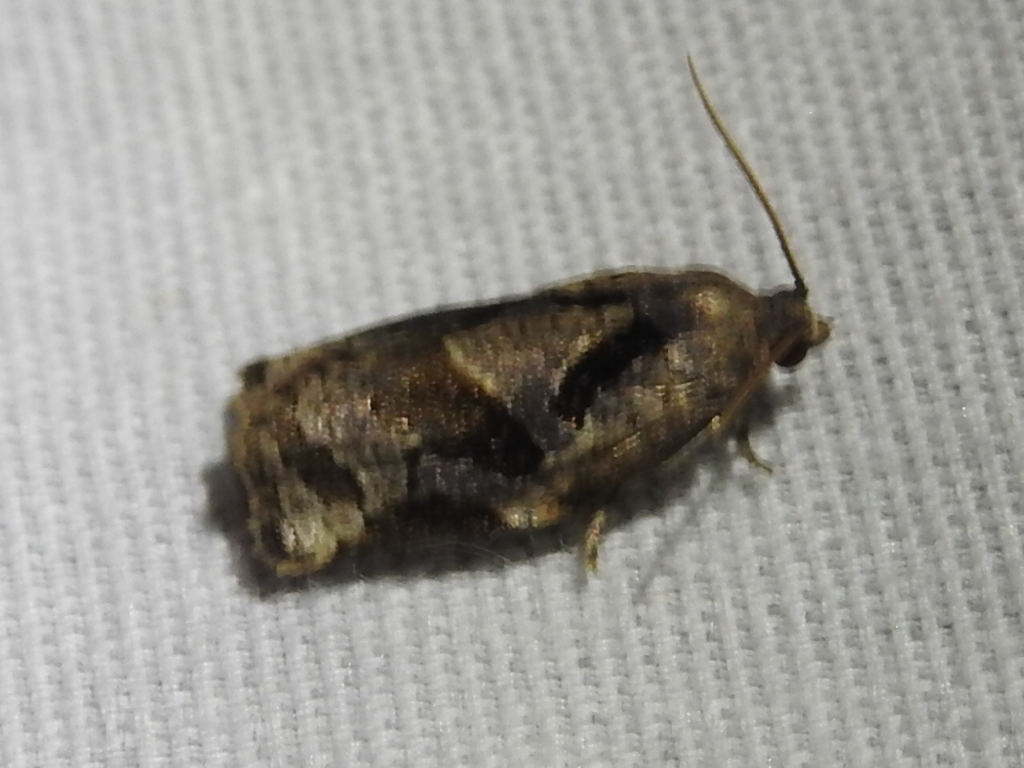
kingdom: Animalia
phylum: Arthropoda
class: Insecta
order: Lepidoptera
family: Tortricidae
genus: Archips
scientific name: Archips grisea
